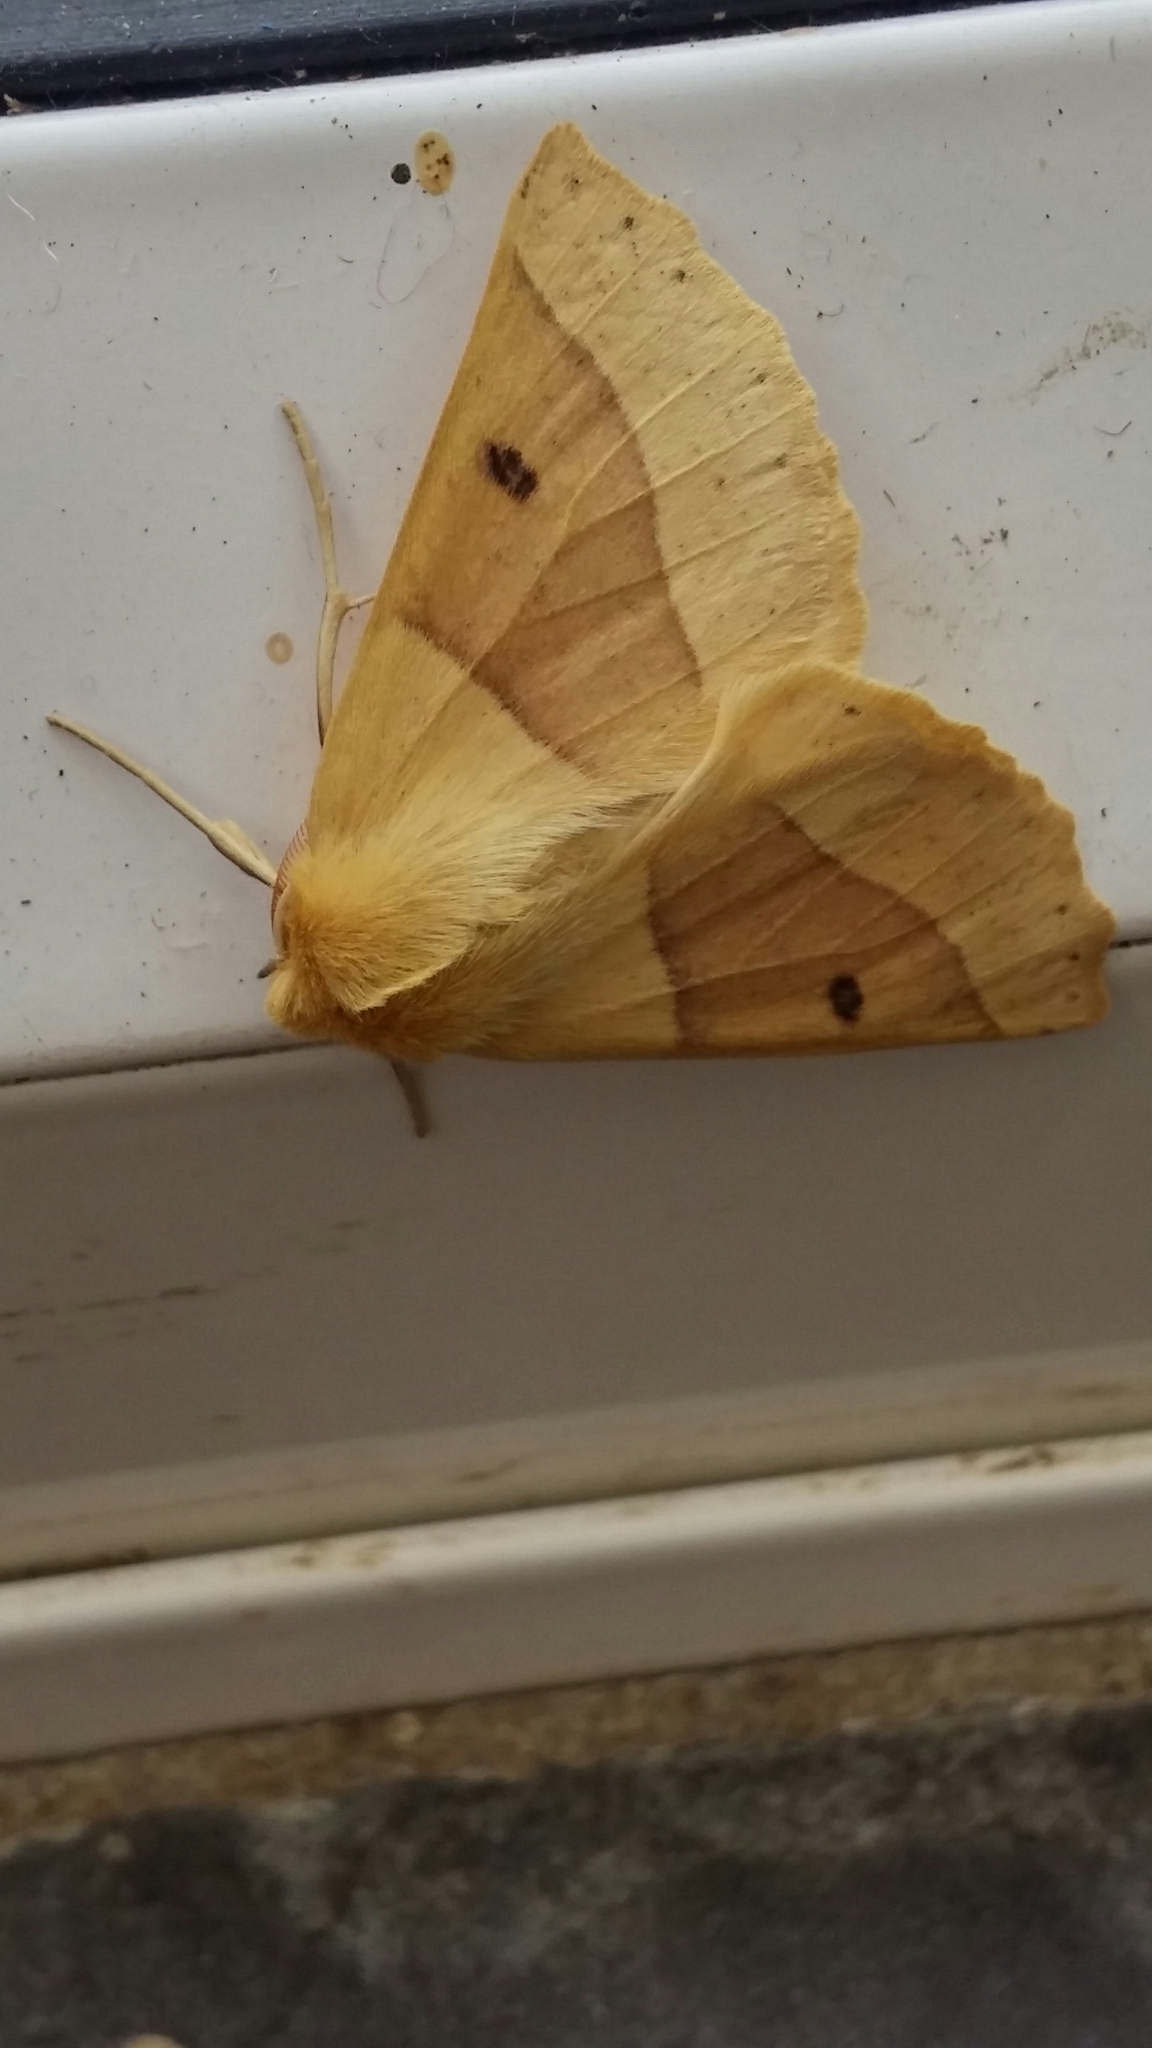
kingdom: Animalia
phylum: Arthropoda
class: Insecta
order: Lepidoptera
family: Geometridae
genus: Crocallis
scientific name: Crocallis elinguaria
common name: Scalloped oak
